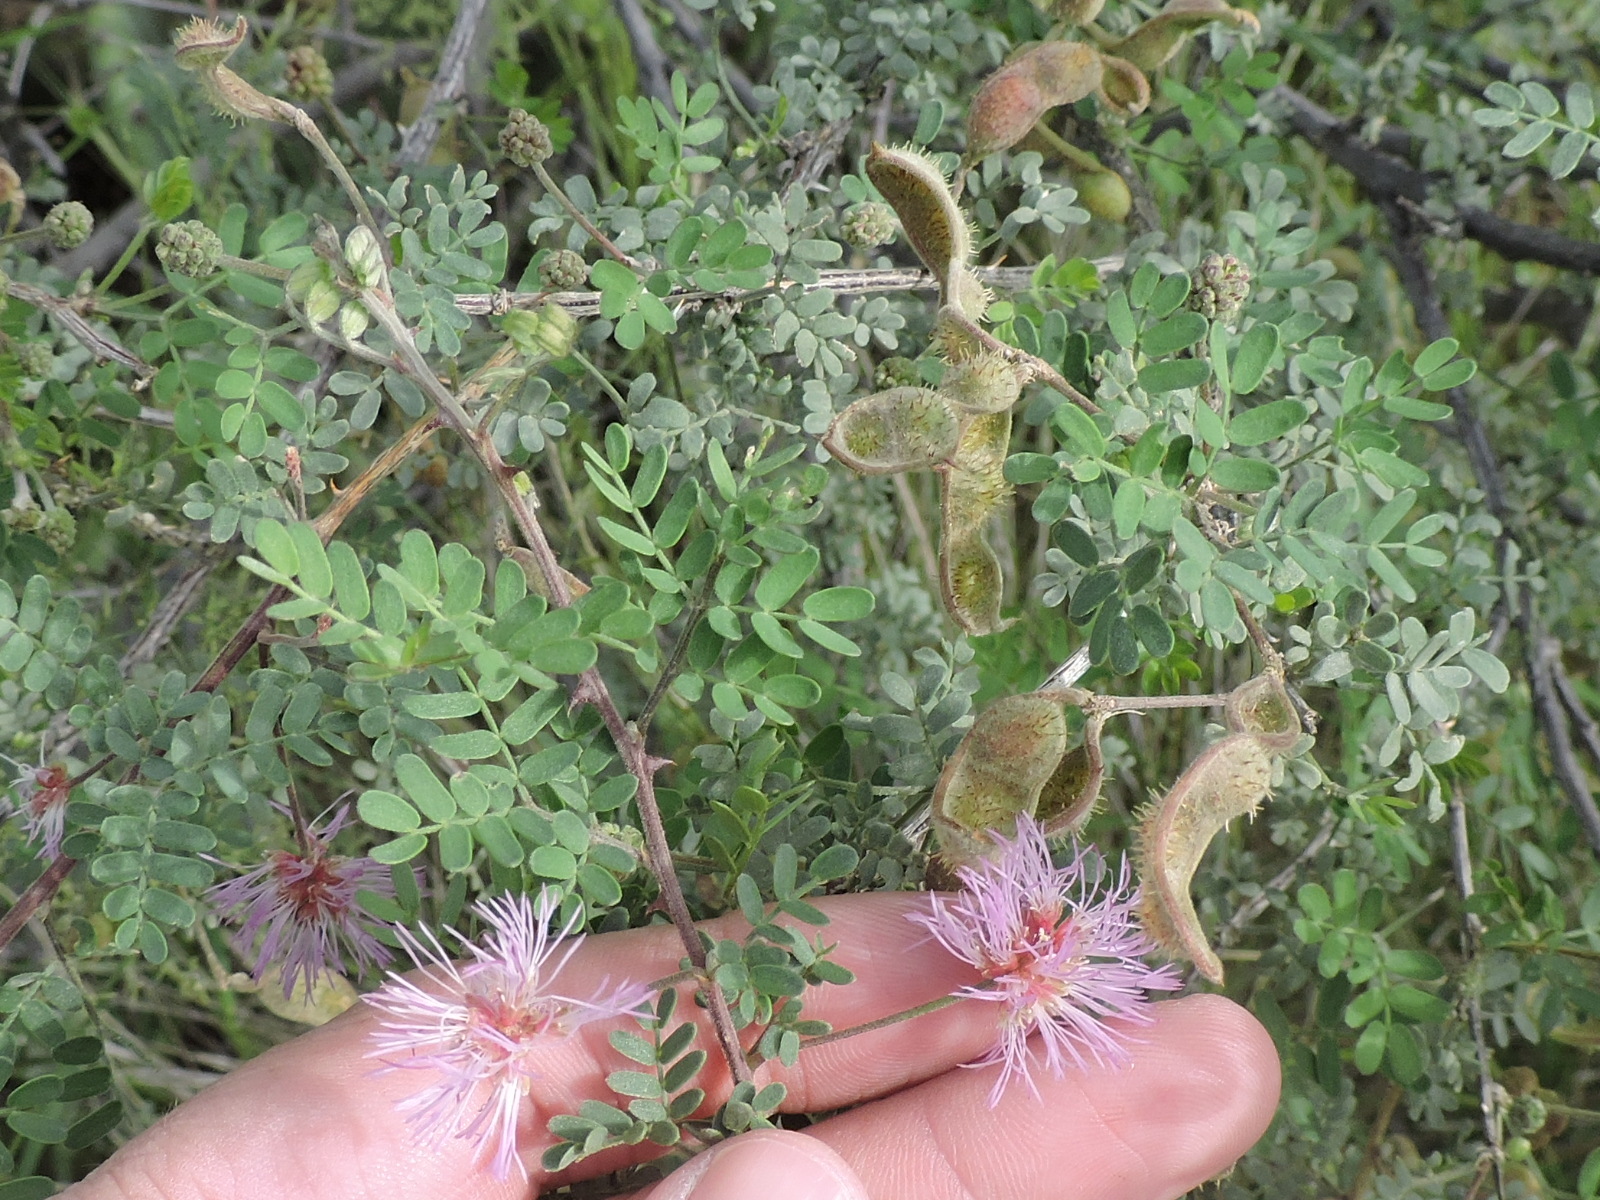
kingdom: Plantae
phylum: Tracheophyta
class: Magnoliopsida
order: Fabales
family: Fabaceae
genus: Mimosa
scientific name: Mimosa emoryana
